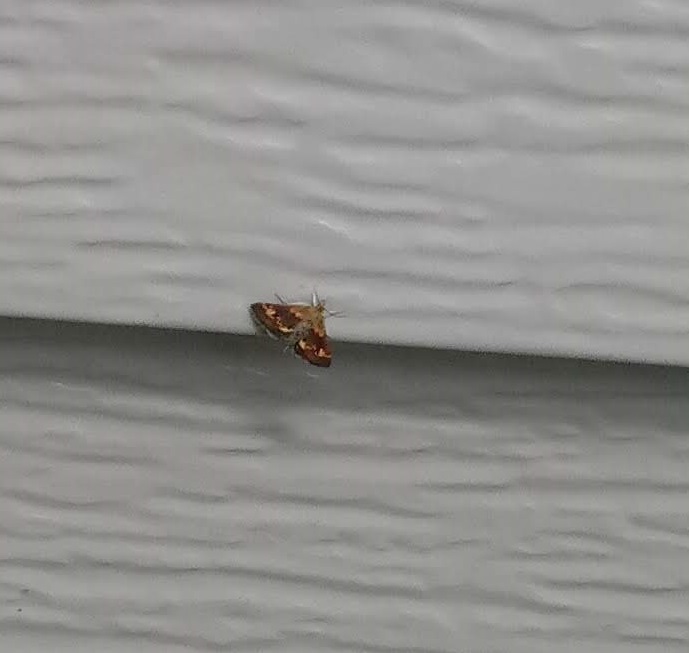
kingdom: Animalia
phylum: Arthropoda
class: Insecta
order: Lepidoptera
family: Crambidae
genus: Pyrausta
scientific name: Pyrausta orphisalis
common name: Orange mint moth
